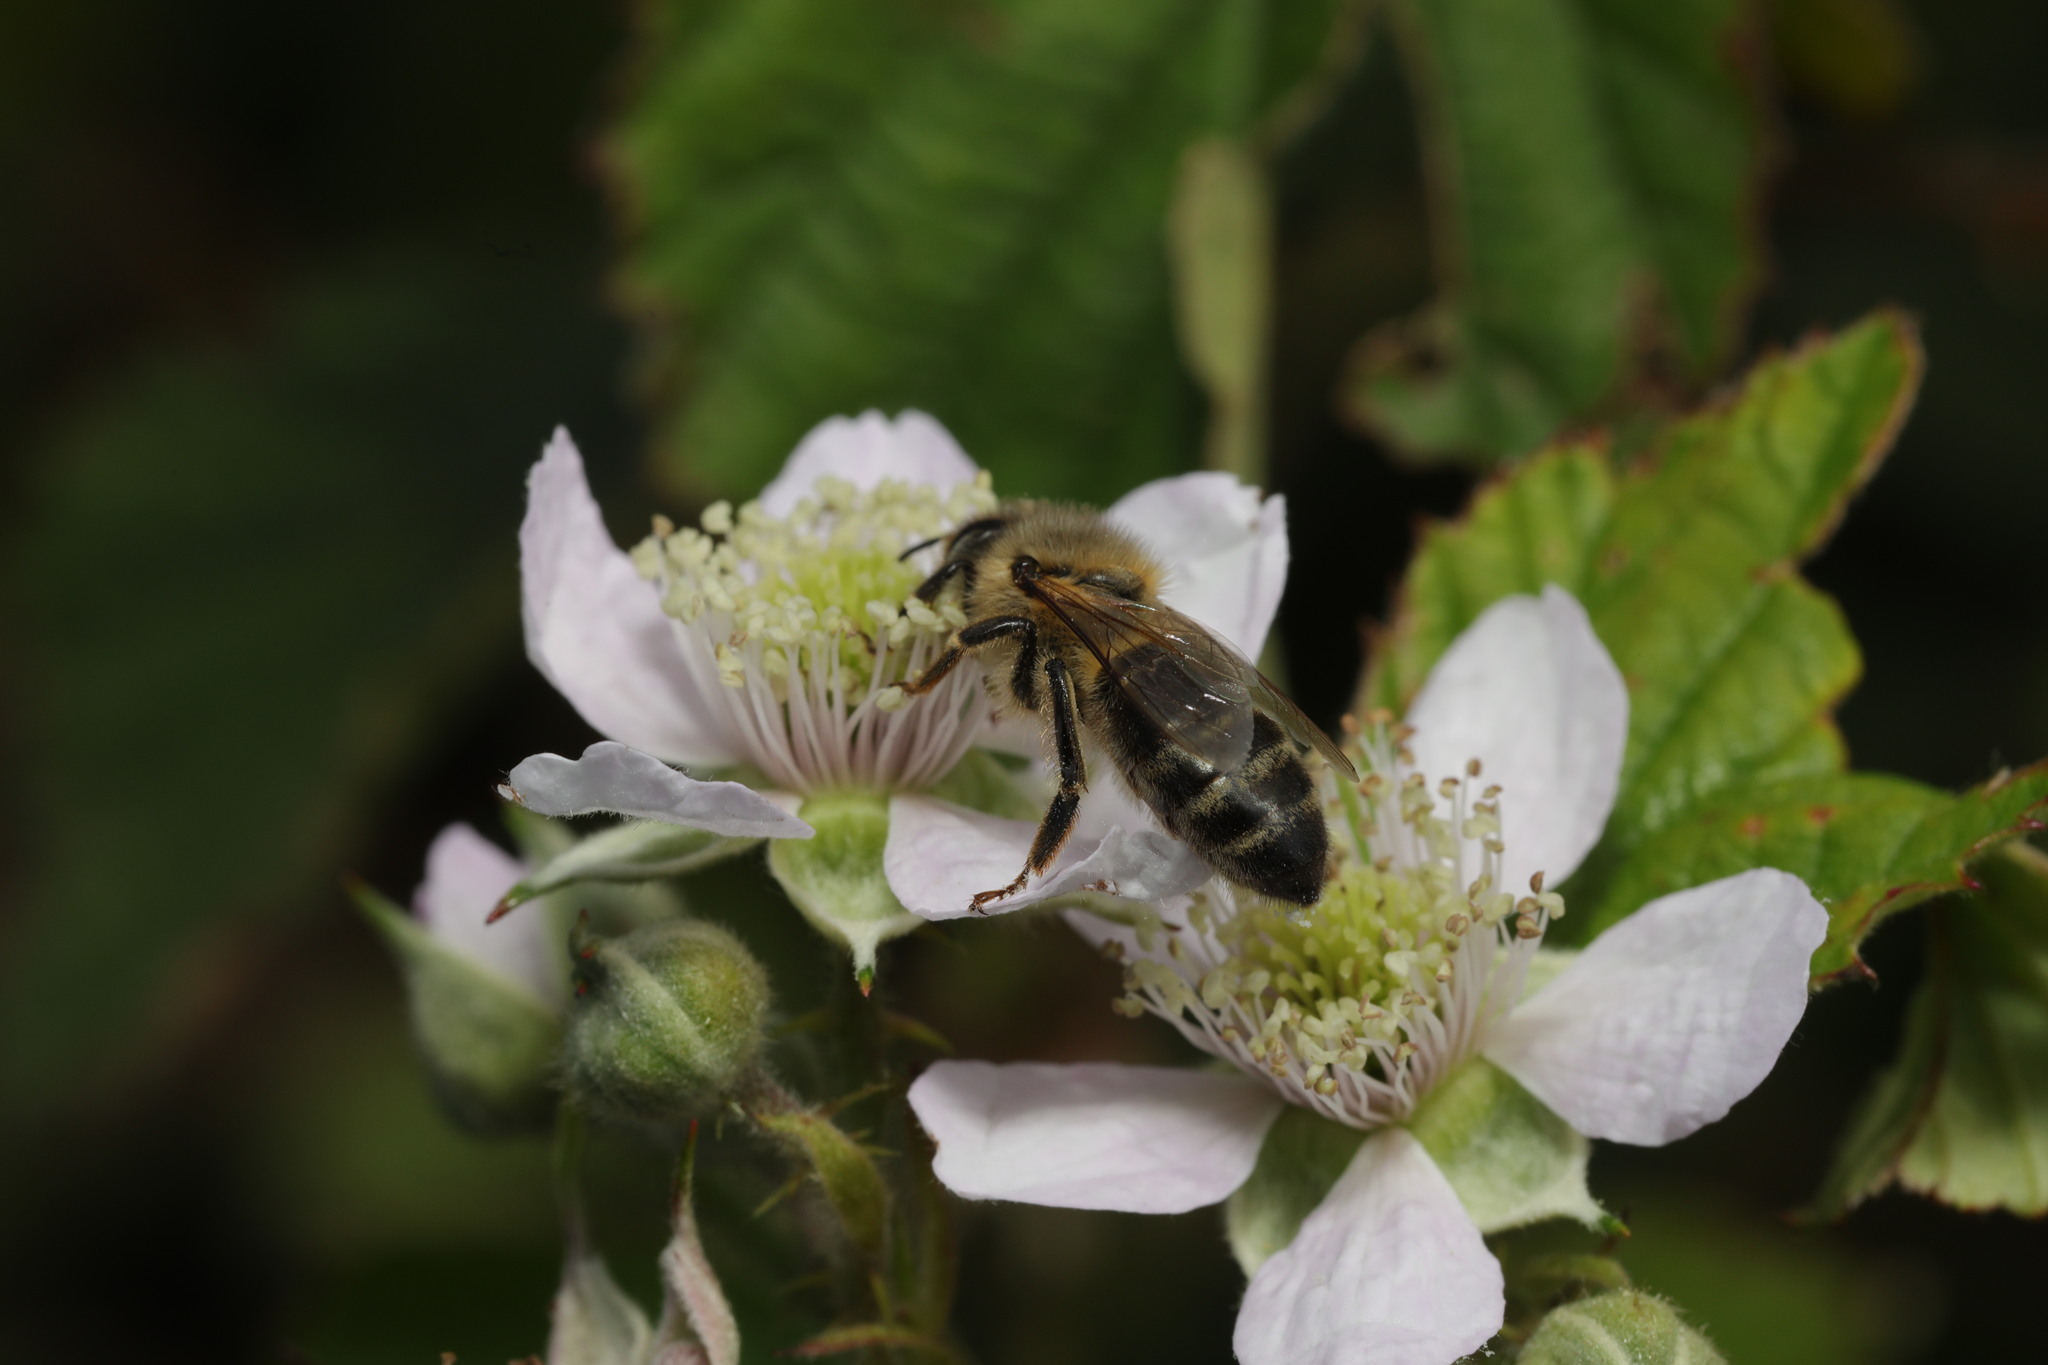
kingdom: Animalia
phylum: Arthropoda
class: Insecta
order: Hymenoptera
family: Apidae
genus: Apis
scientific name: Apis mellifera
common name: Honey bee
